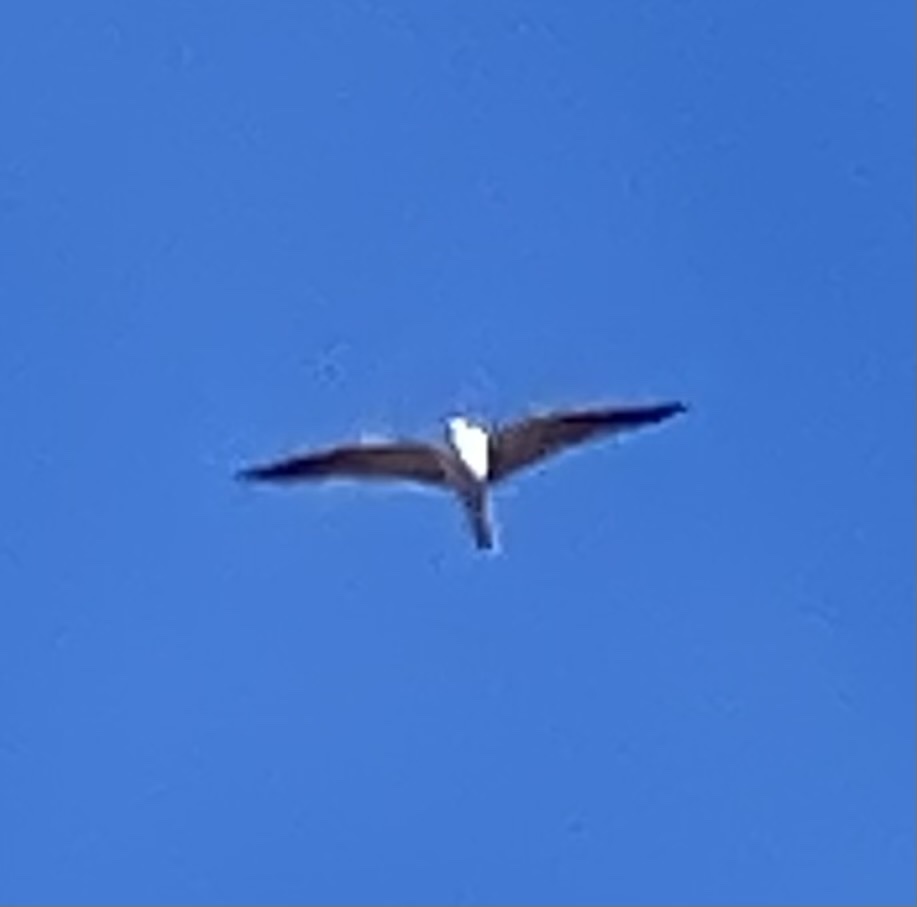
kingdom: Animalia
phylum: Chordata
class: Aves
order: Accipitriformes
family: Accipitridae
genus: Elanus
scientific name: Elanus leucurus
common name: White-tailed kite
